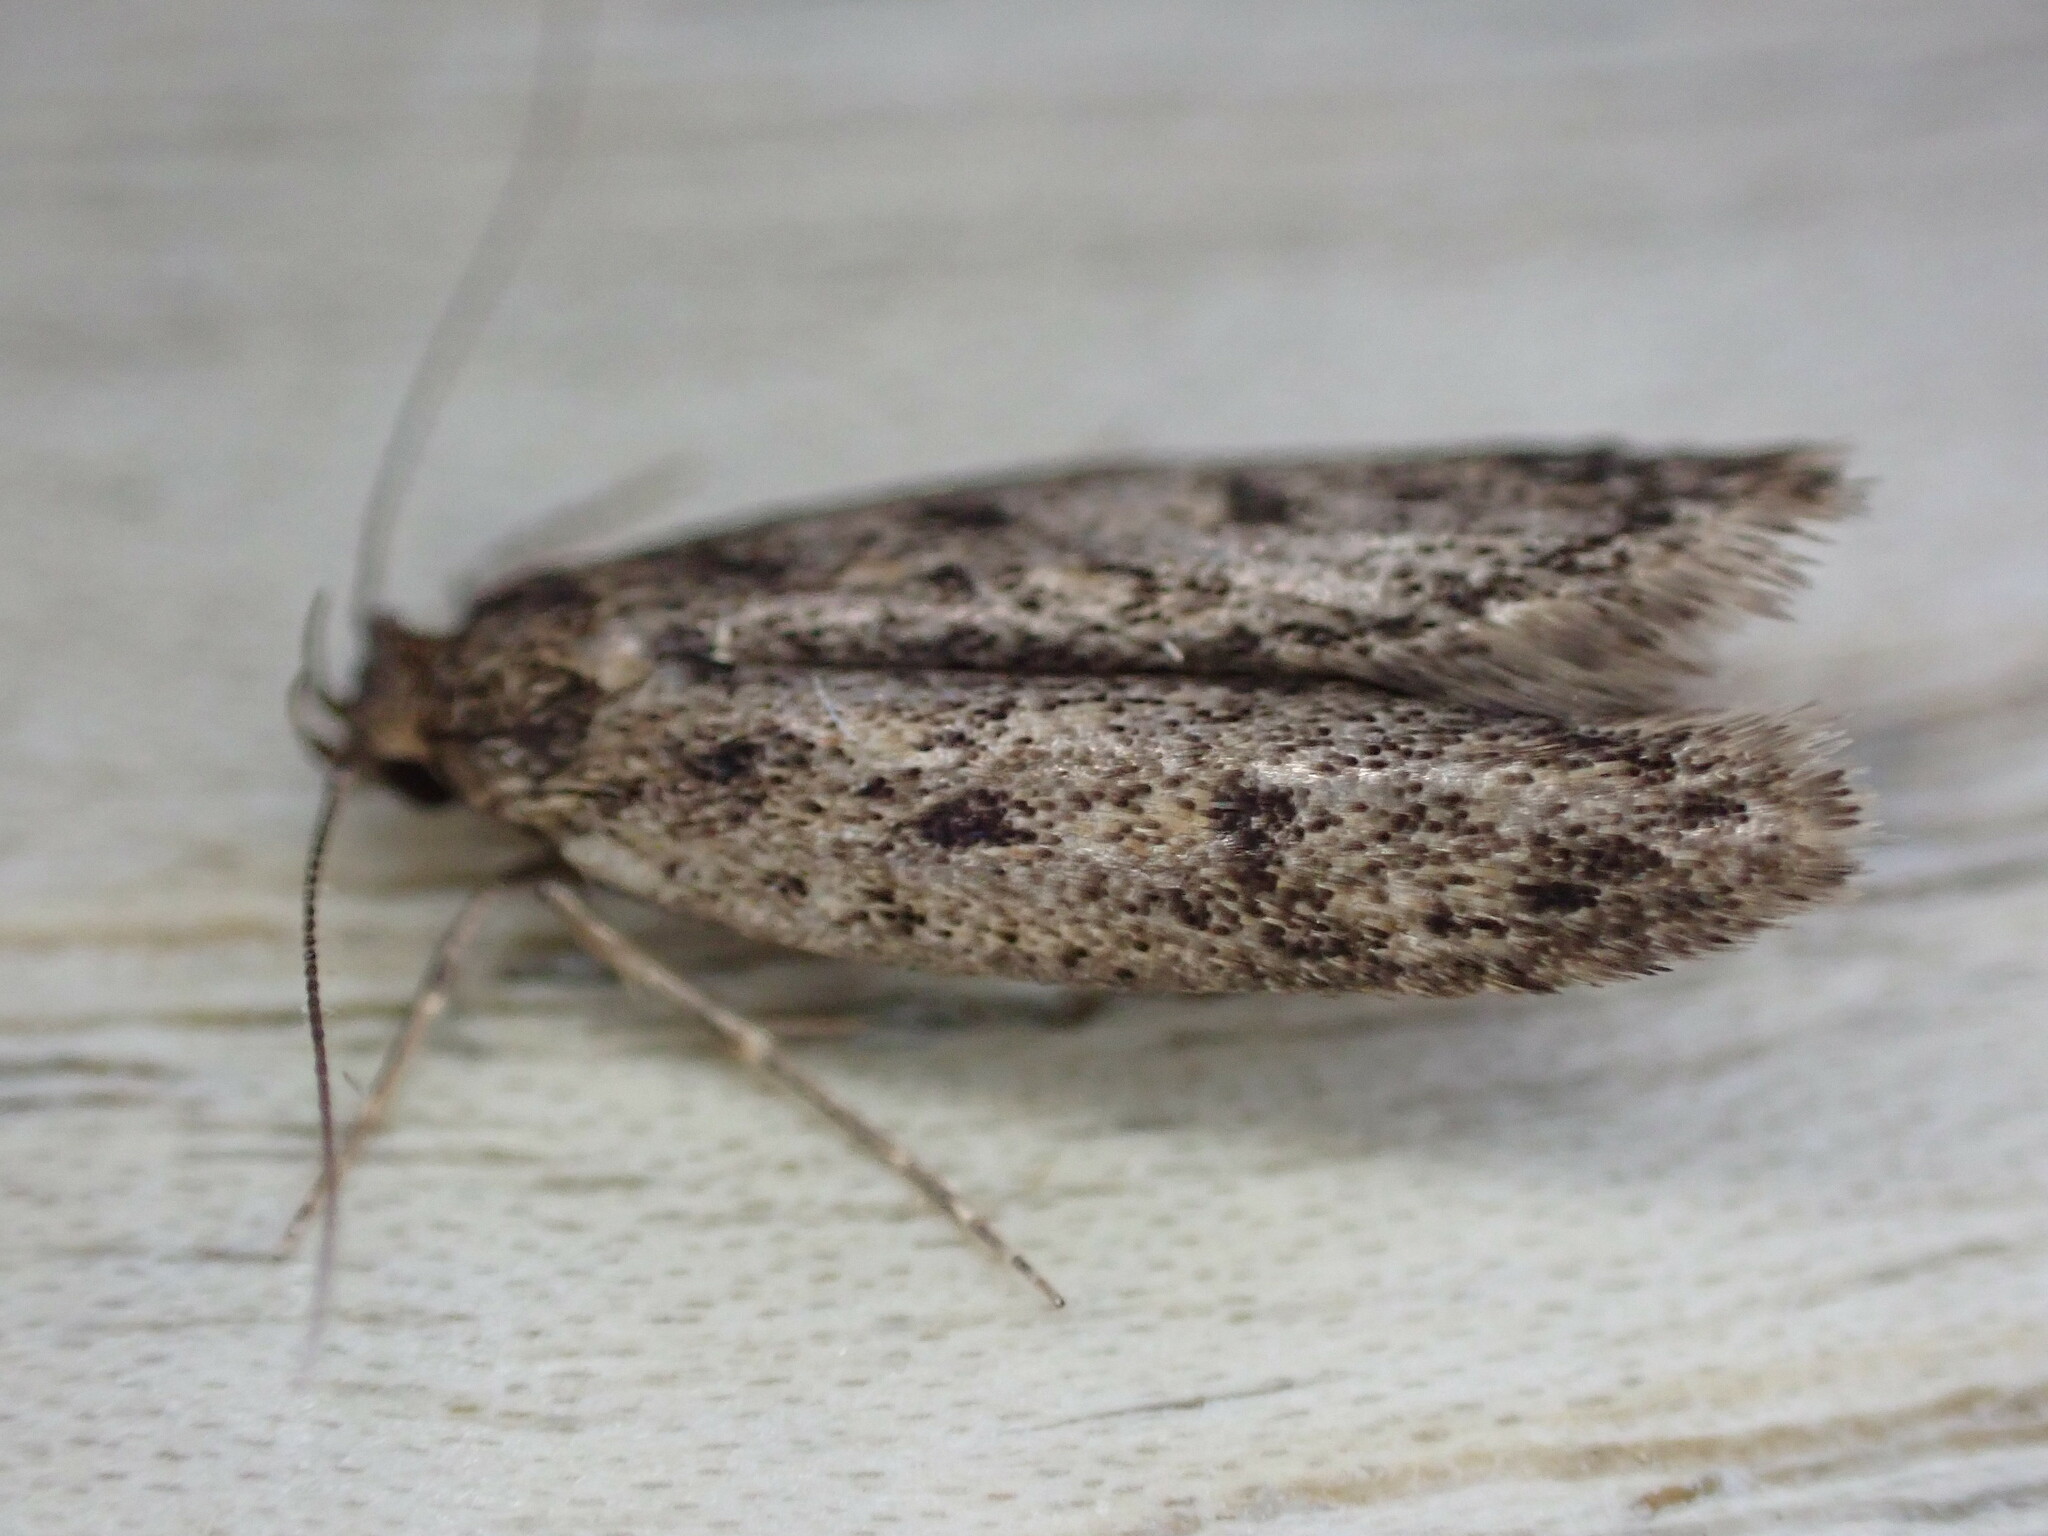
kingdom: Animalia
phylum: Arthropoda
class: Insecta
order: Lepidoptera
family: Oecophoridae
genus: Hofmannophila
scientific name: Hofmannophila pseudospretella
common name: Brown house moth
